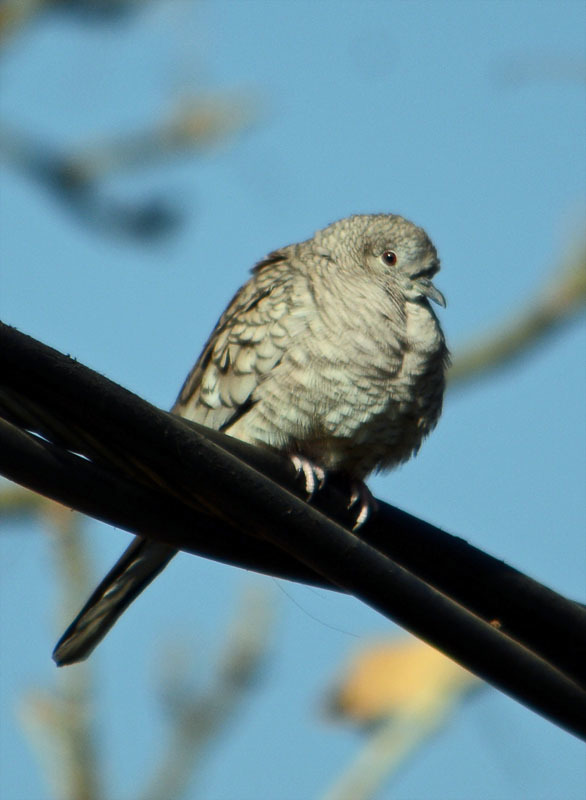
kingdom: Animalia
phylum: Chordata
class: Aves
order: Columbiformes
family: Columbidae
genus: Columbina
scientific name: Columbina inca
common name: Inca dove
